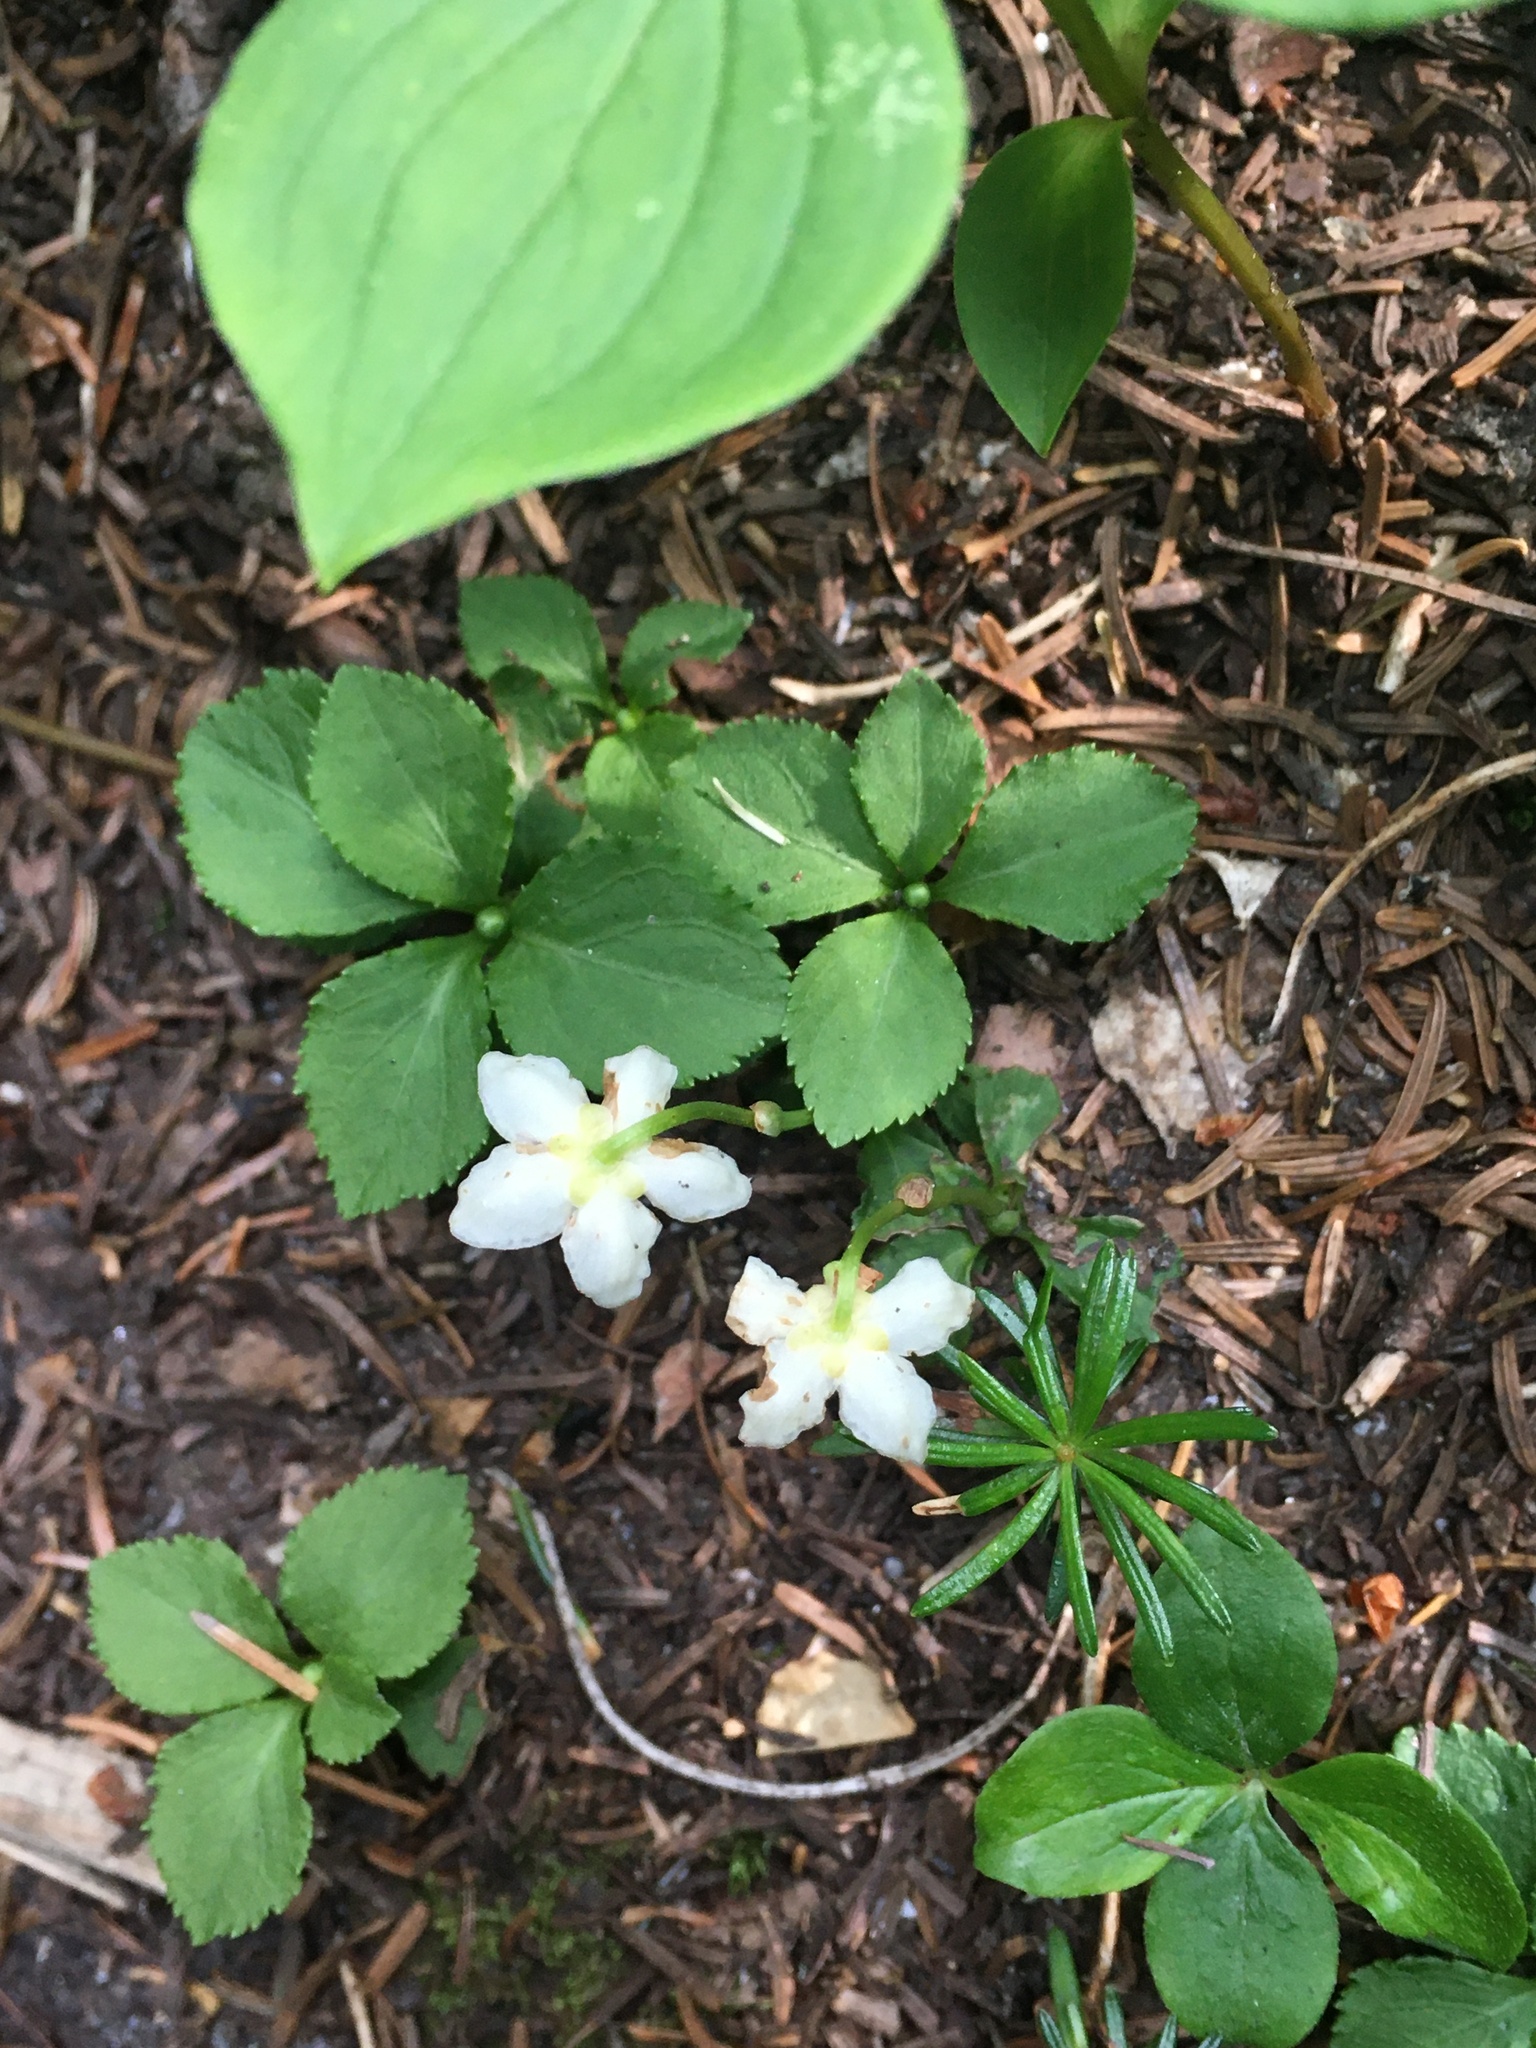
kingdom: Plantae
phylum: Tracheophyta
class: Magnoliopsida
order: Ericales
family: Ericaceae
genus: Moneses
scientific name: Moneses uniflora
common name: One-flowered wintergreen
